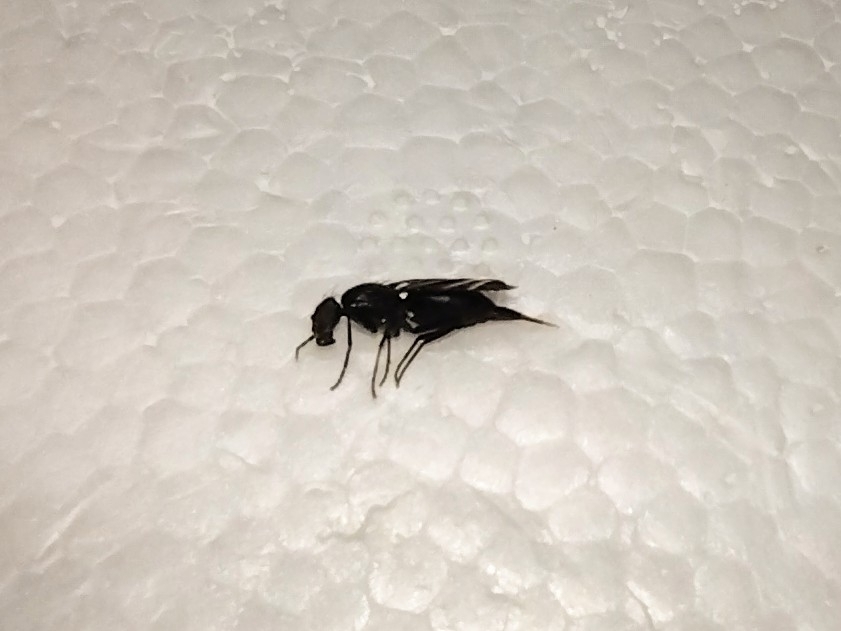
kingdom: Animalia
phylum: Arthropoda
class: Insecta
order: Diptera
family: Ulidiidae
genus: Tritoxa
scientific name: Tritoxa flexa
